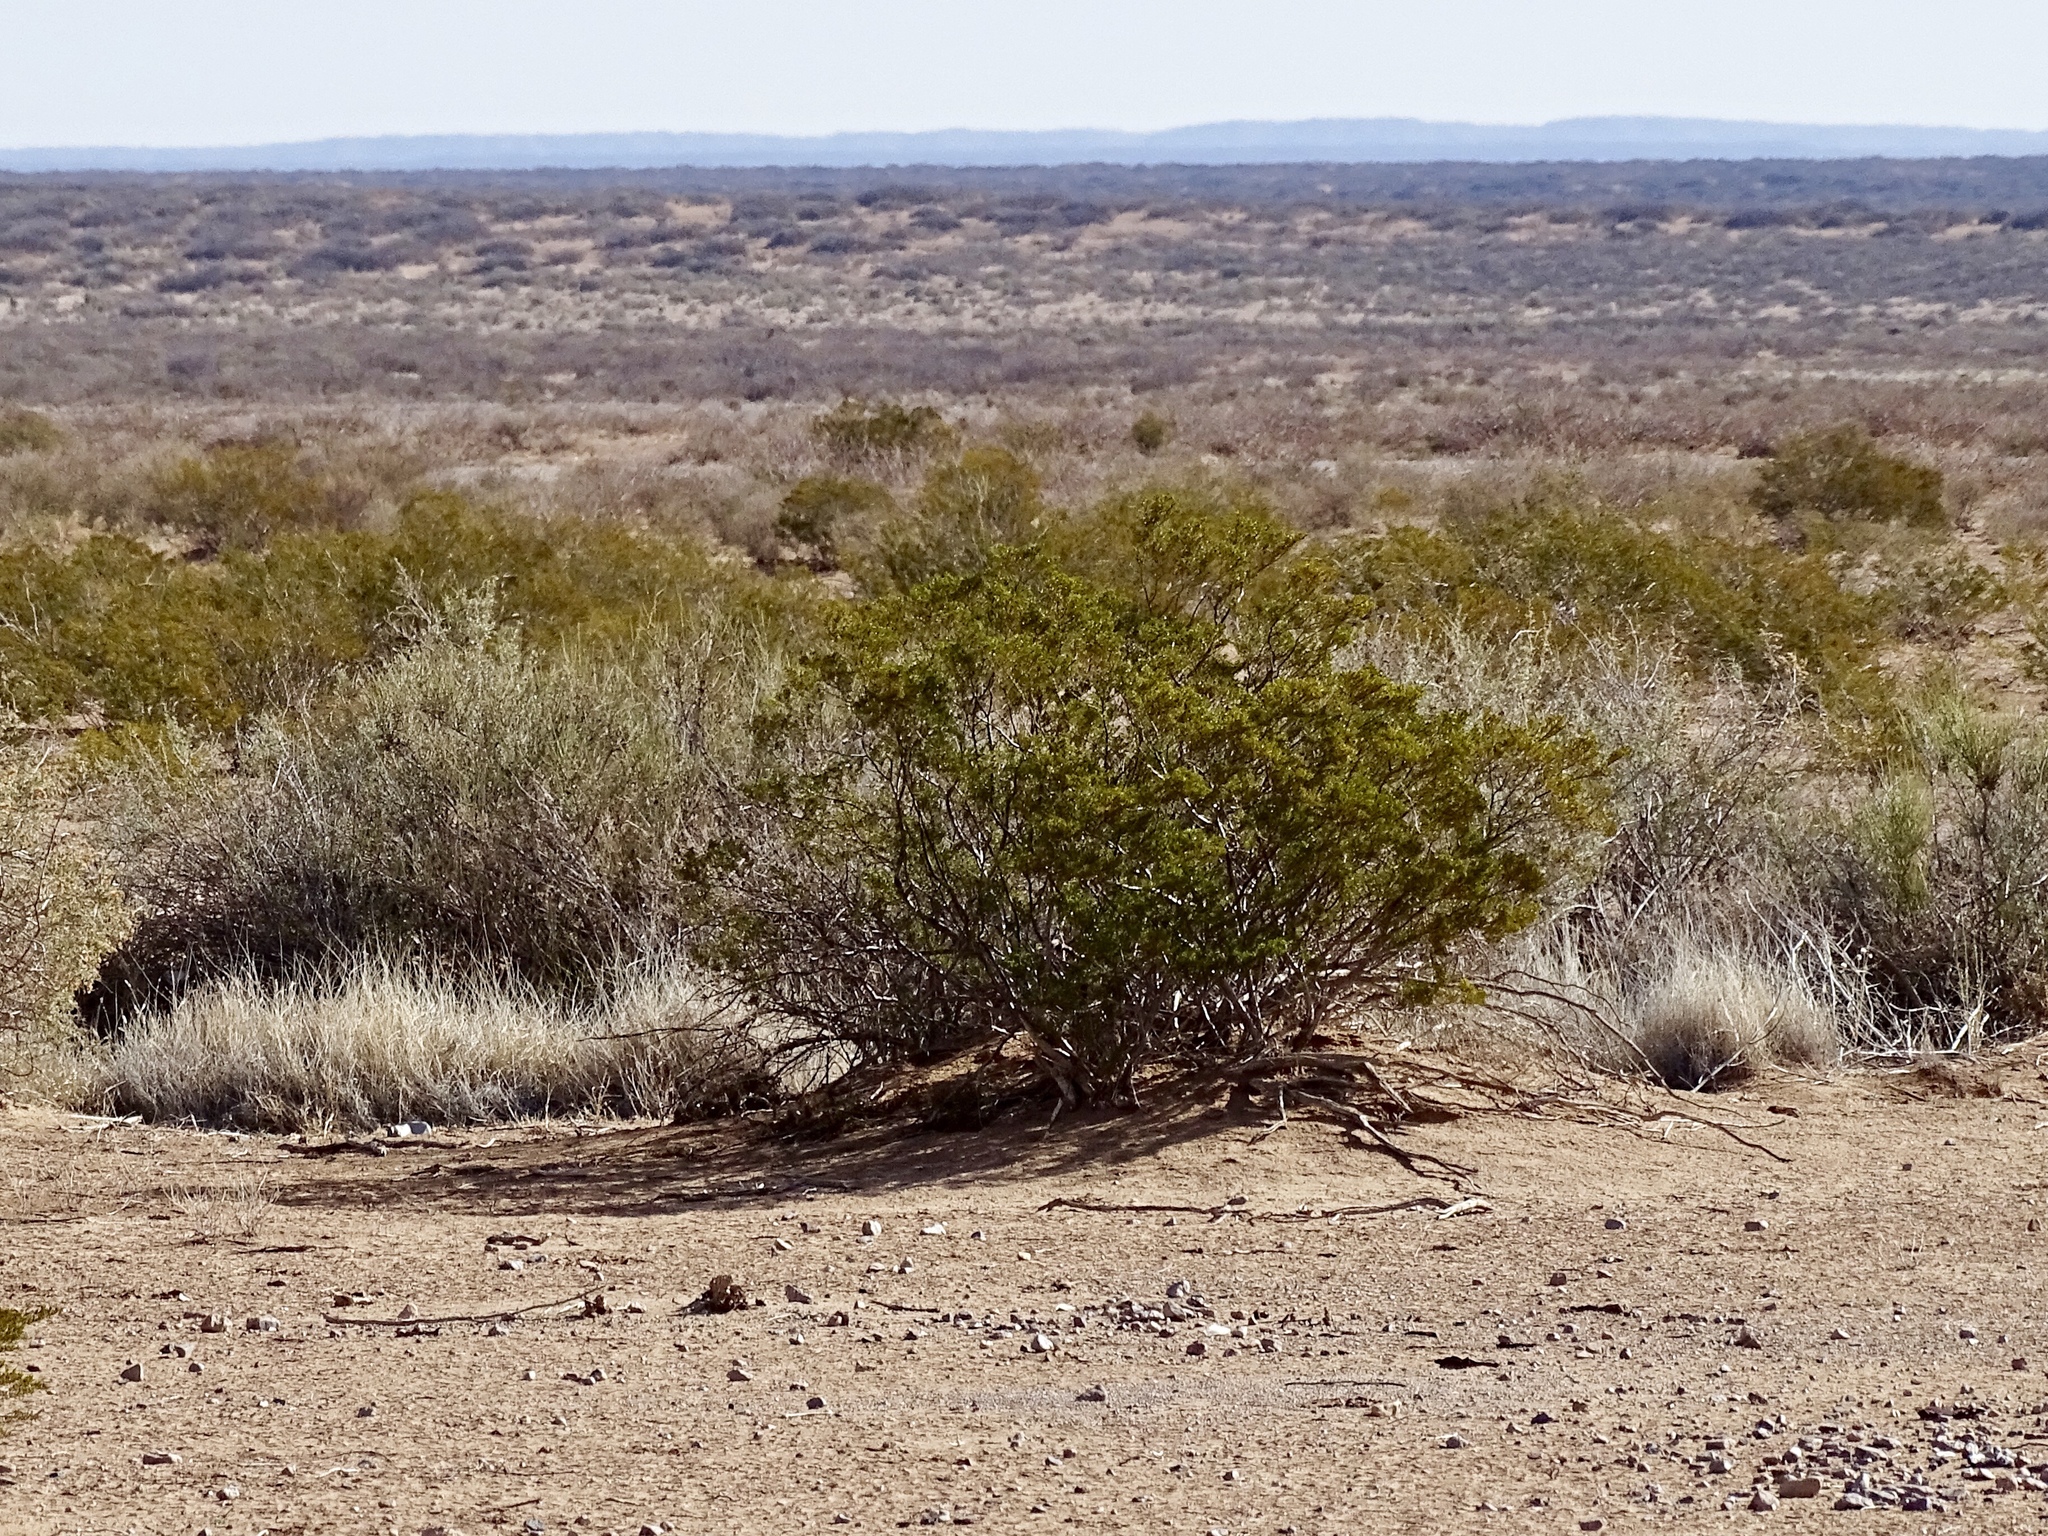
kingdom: Plantae
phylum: Tracheophyta
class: Magnoliopsida
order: Zygophyllales
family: Zygophyllaceae
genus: Larrea
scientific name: Larrea tridentata
